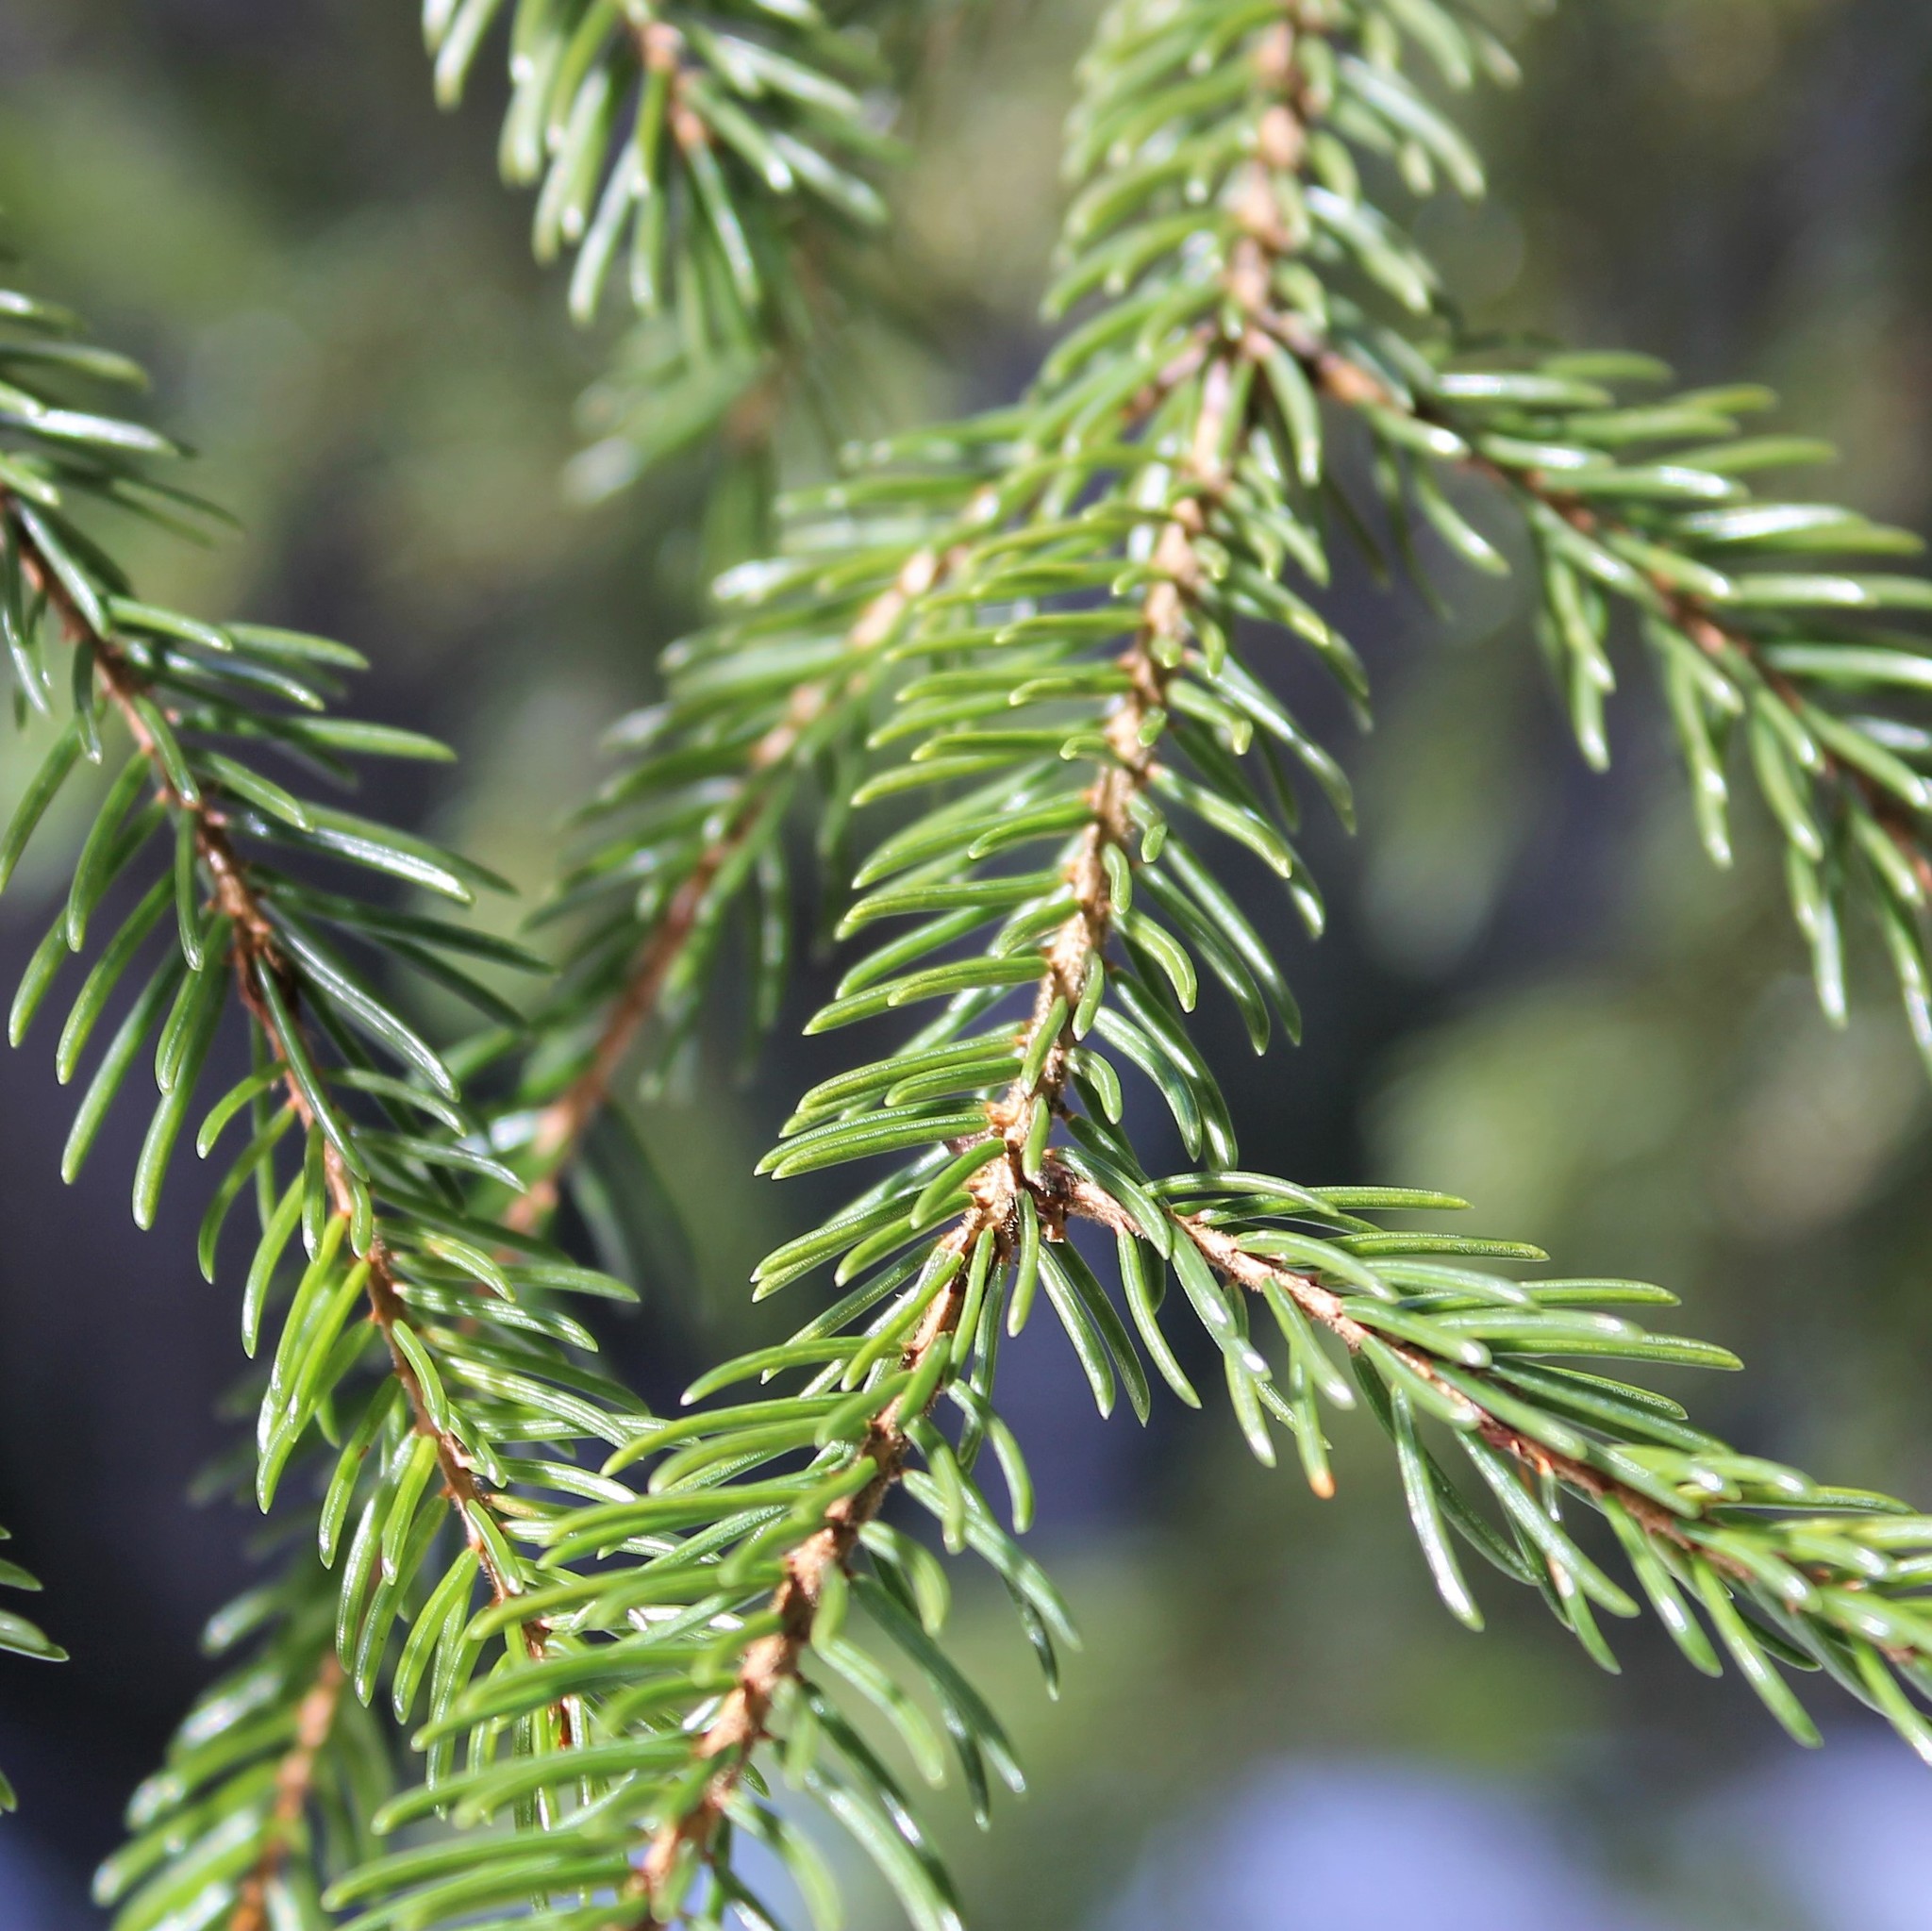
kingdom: Plantae
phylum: Tracheophyta
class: Pinopsida
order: Pinales
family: Pinaceae
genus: Picea
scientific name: Picea rubens
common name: Red spruce
